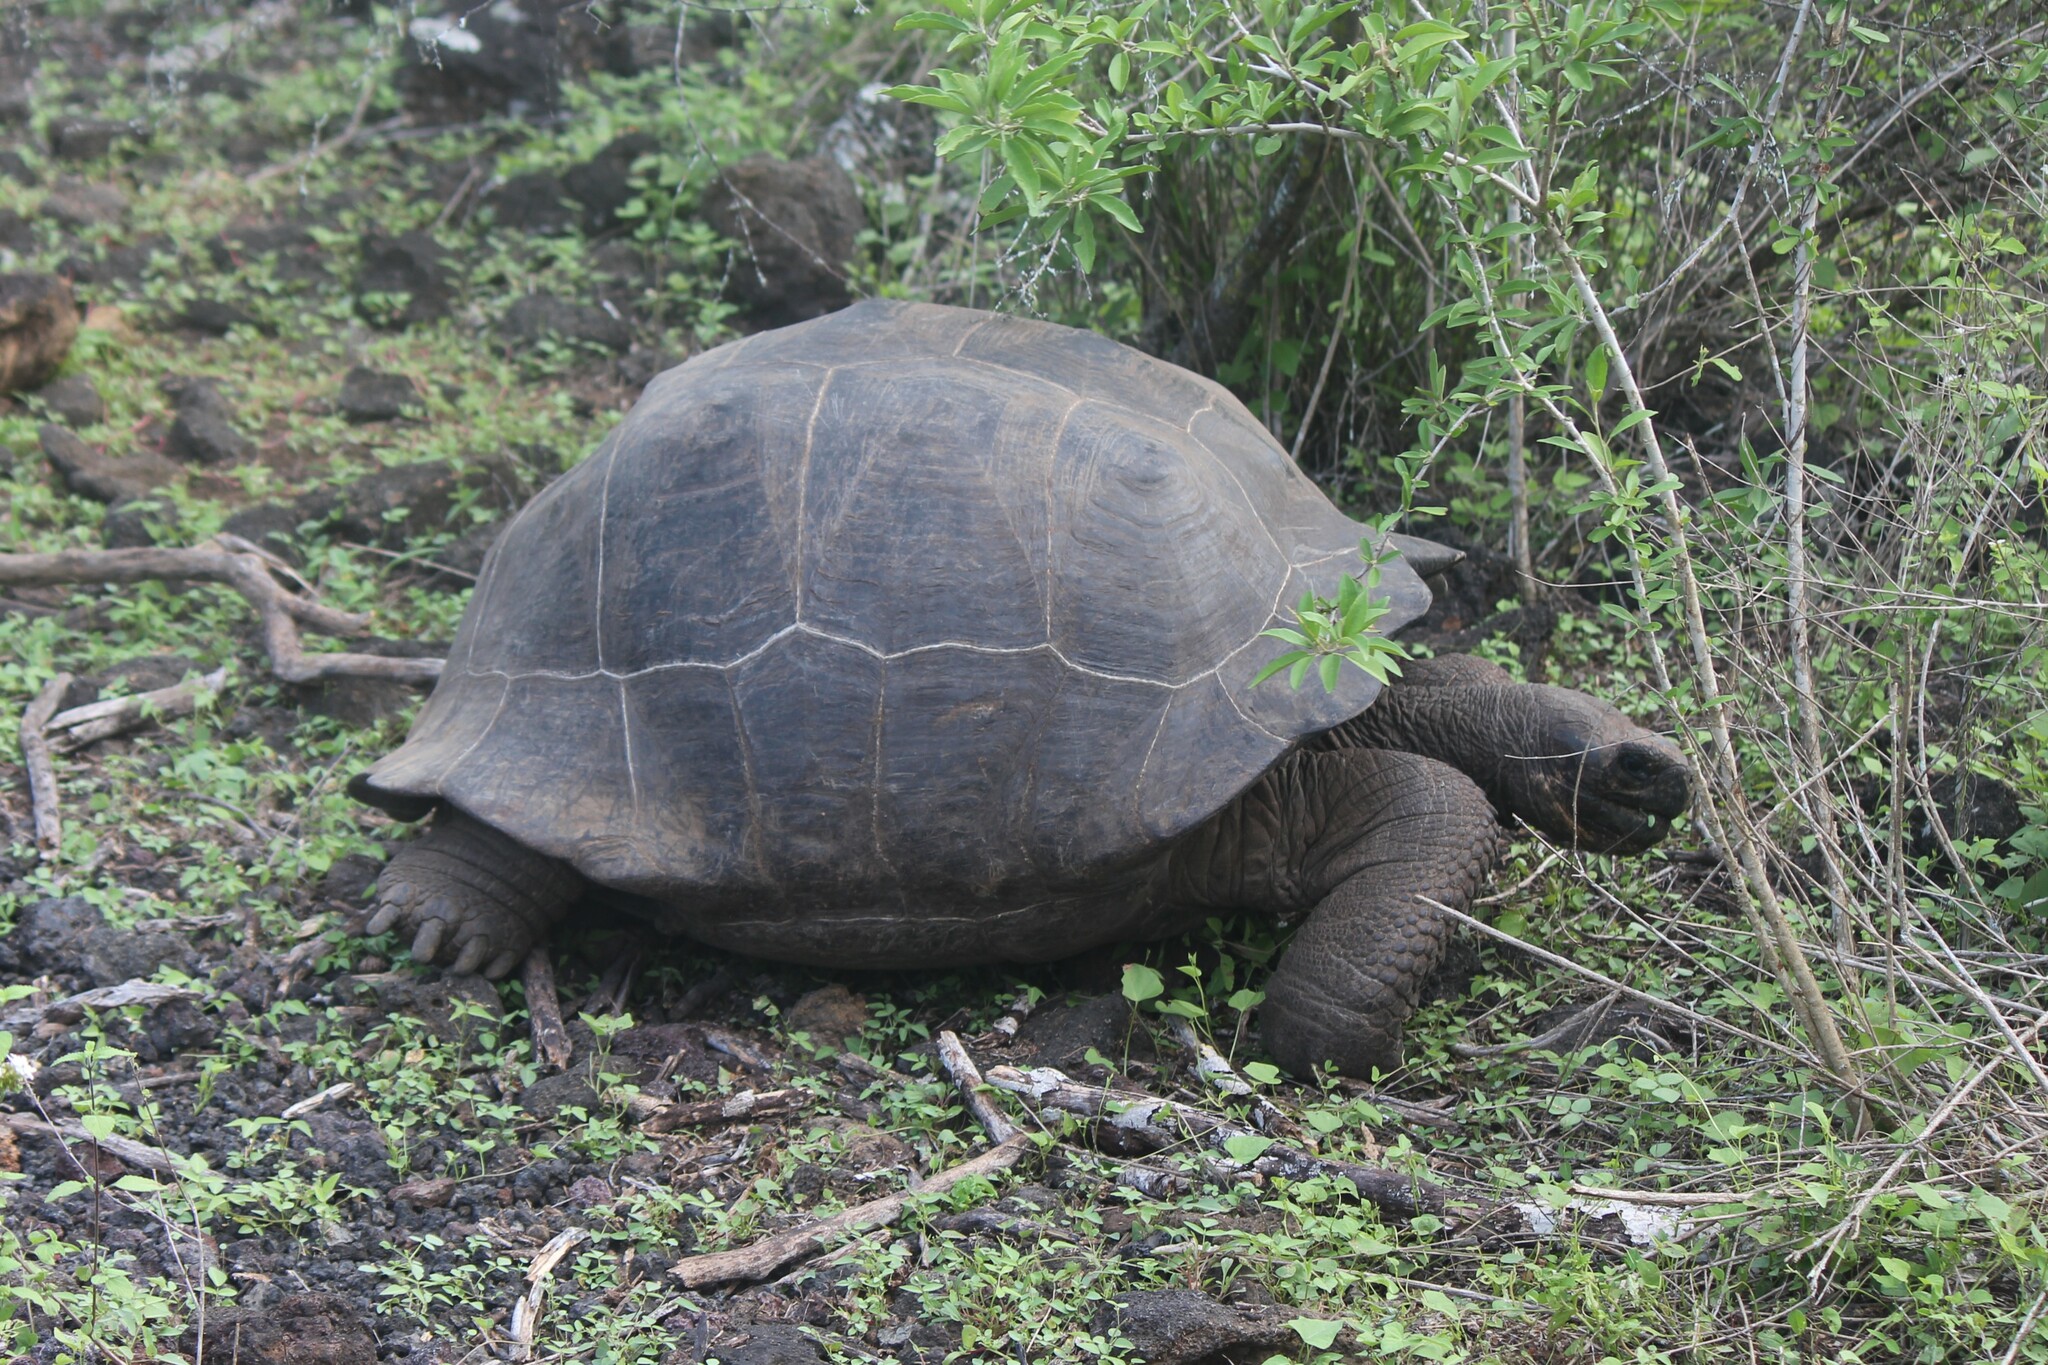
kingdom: Animalia
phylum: Chordata
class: Testudines
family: Testudinidae
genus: Chelonoidis
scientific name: Chelonoidis niger
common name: Charles island giant tortoise
